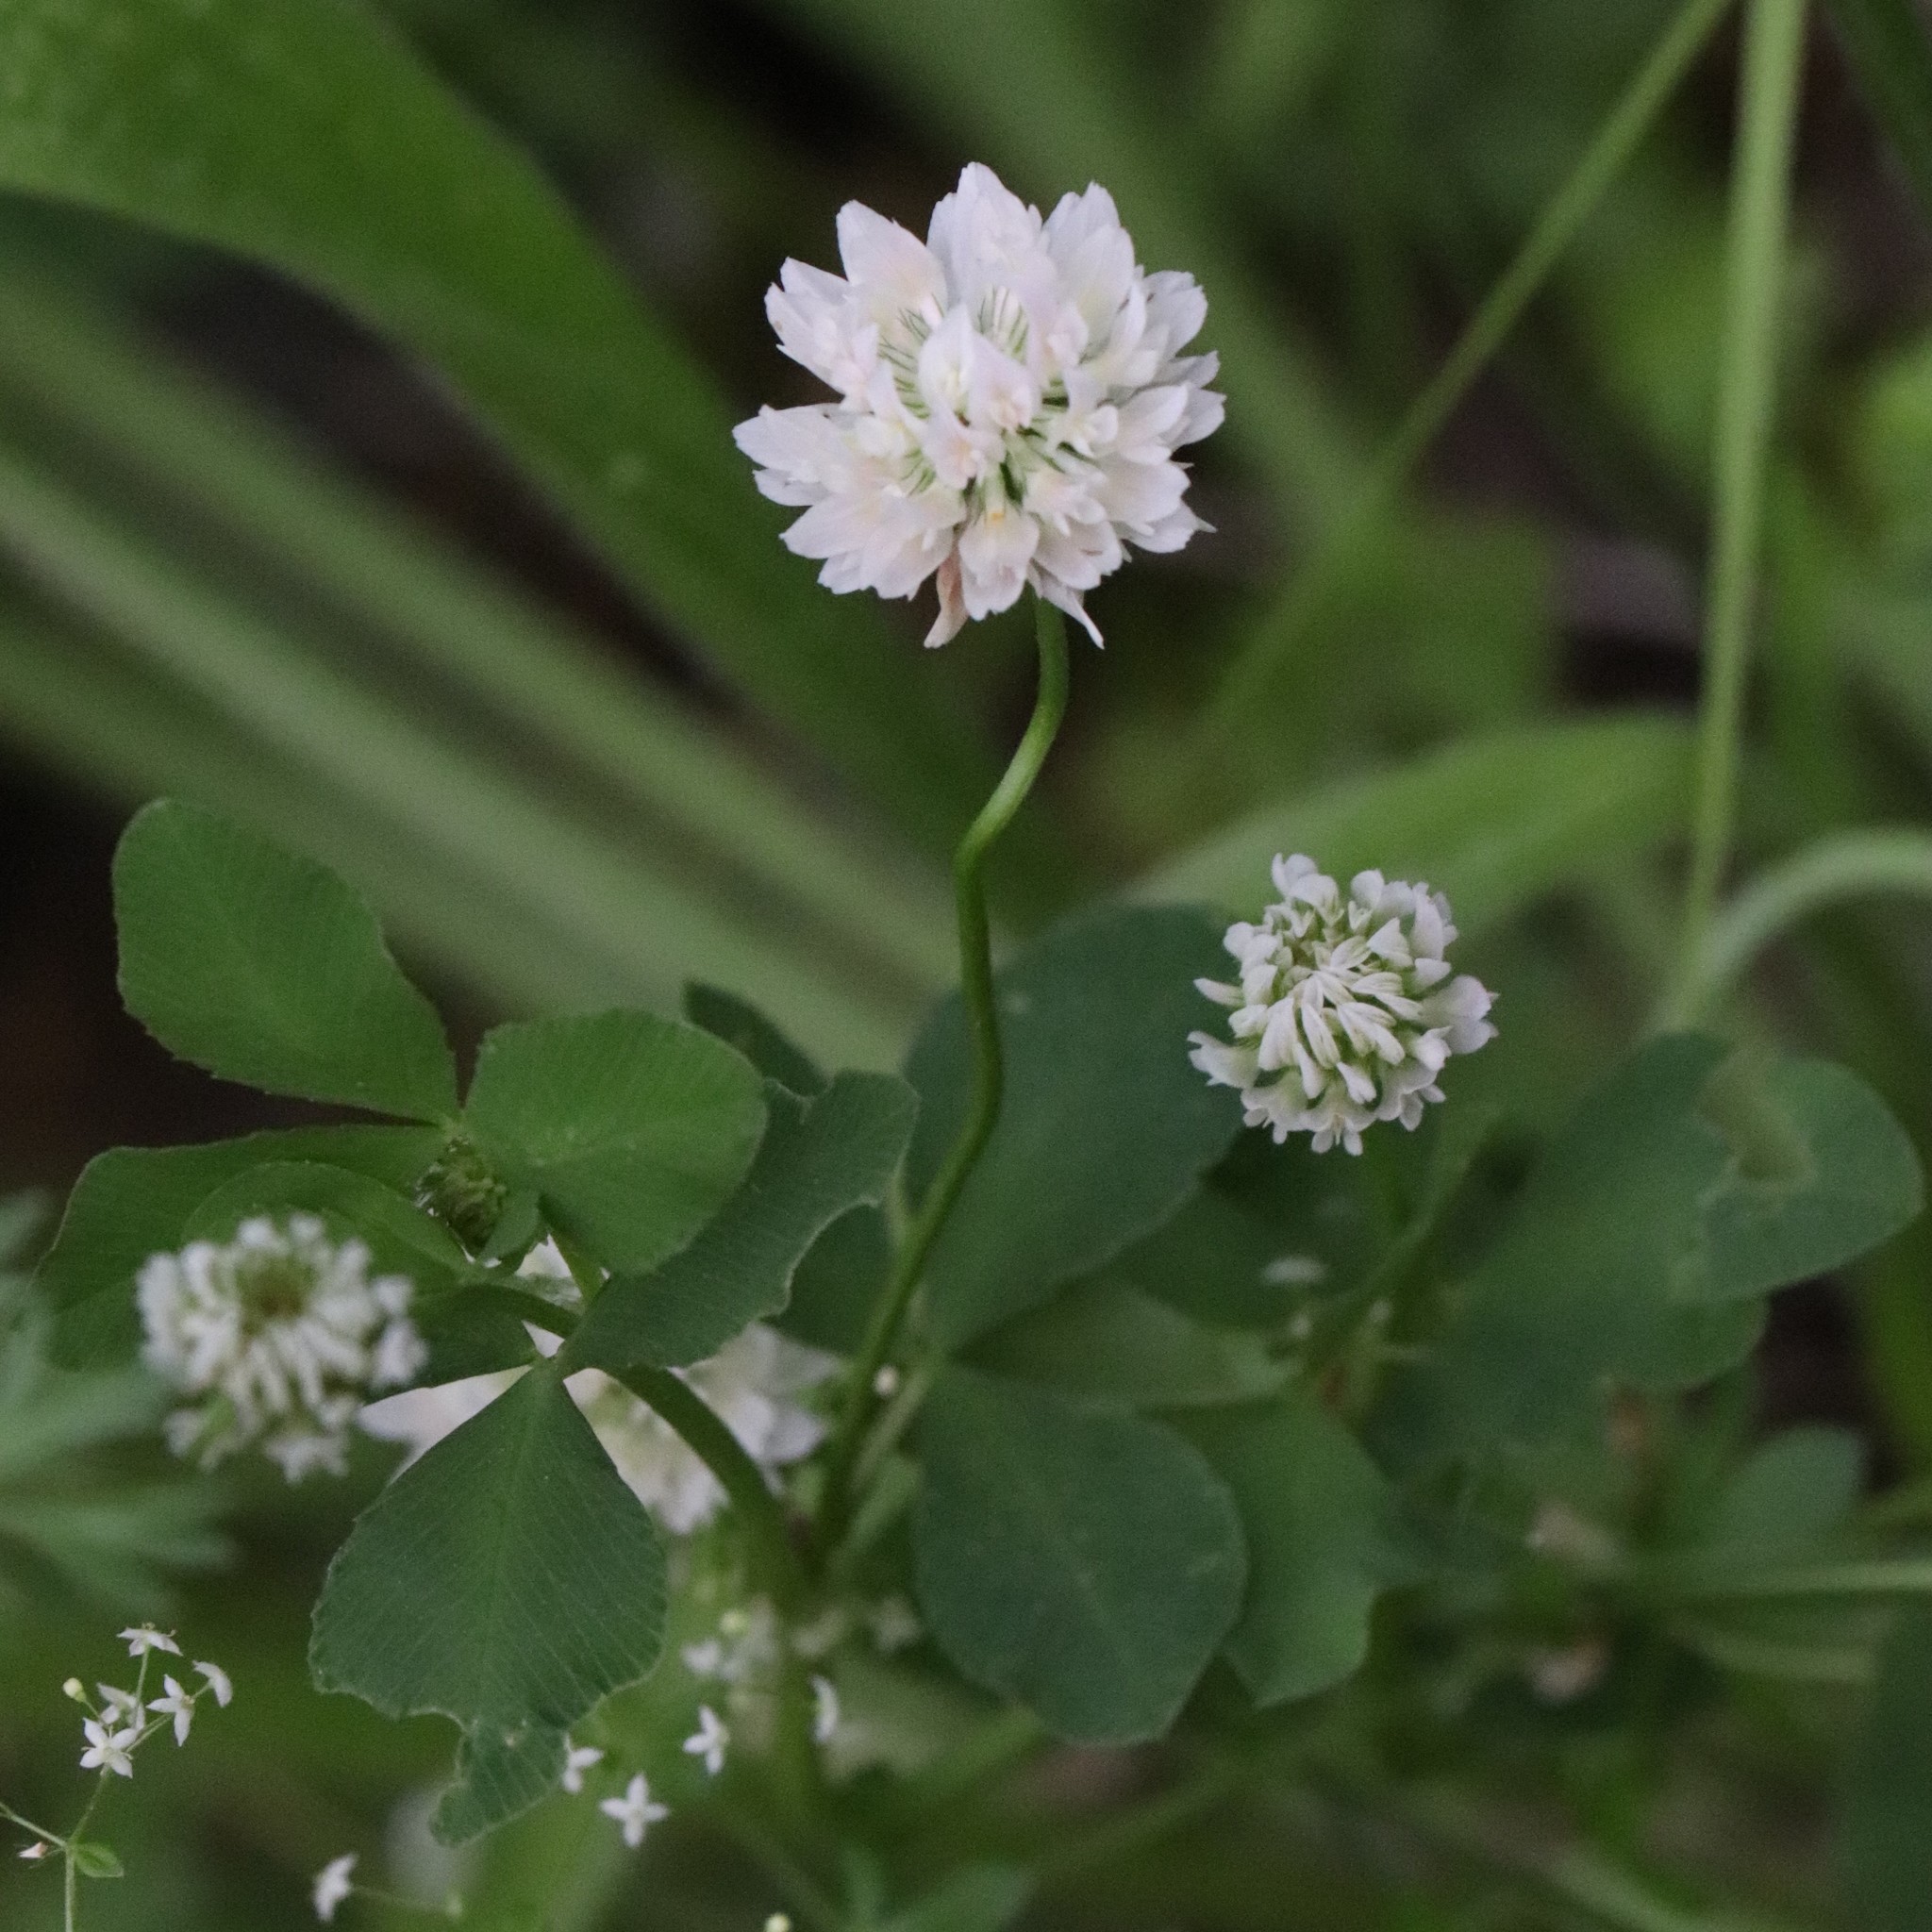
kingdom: Plantae
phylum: Tracheophyta
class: Magnoliopsida
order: Fabales
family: Fabaceae
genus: Trifolium
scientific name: Trifolium hybridum
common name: Alsike clover
